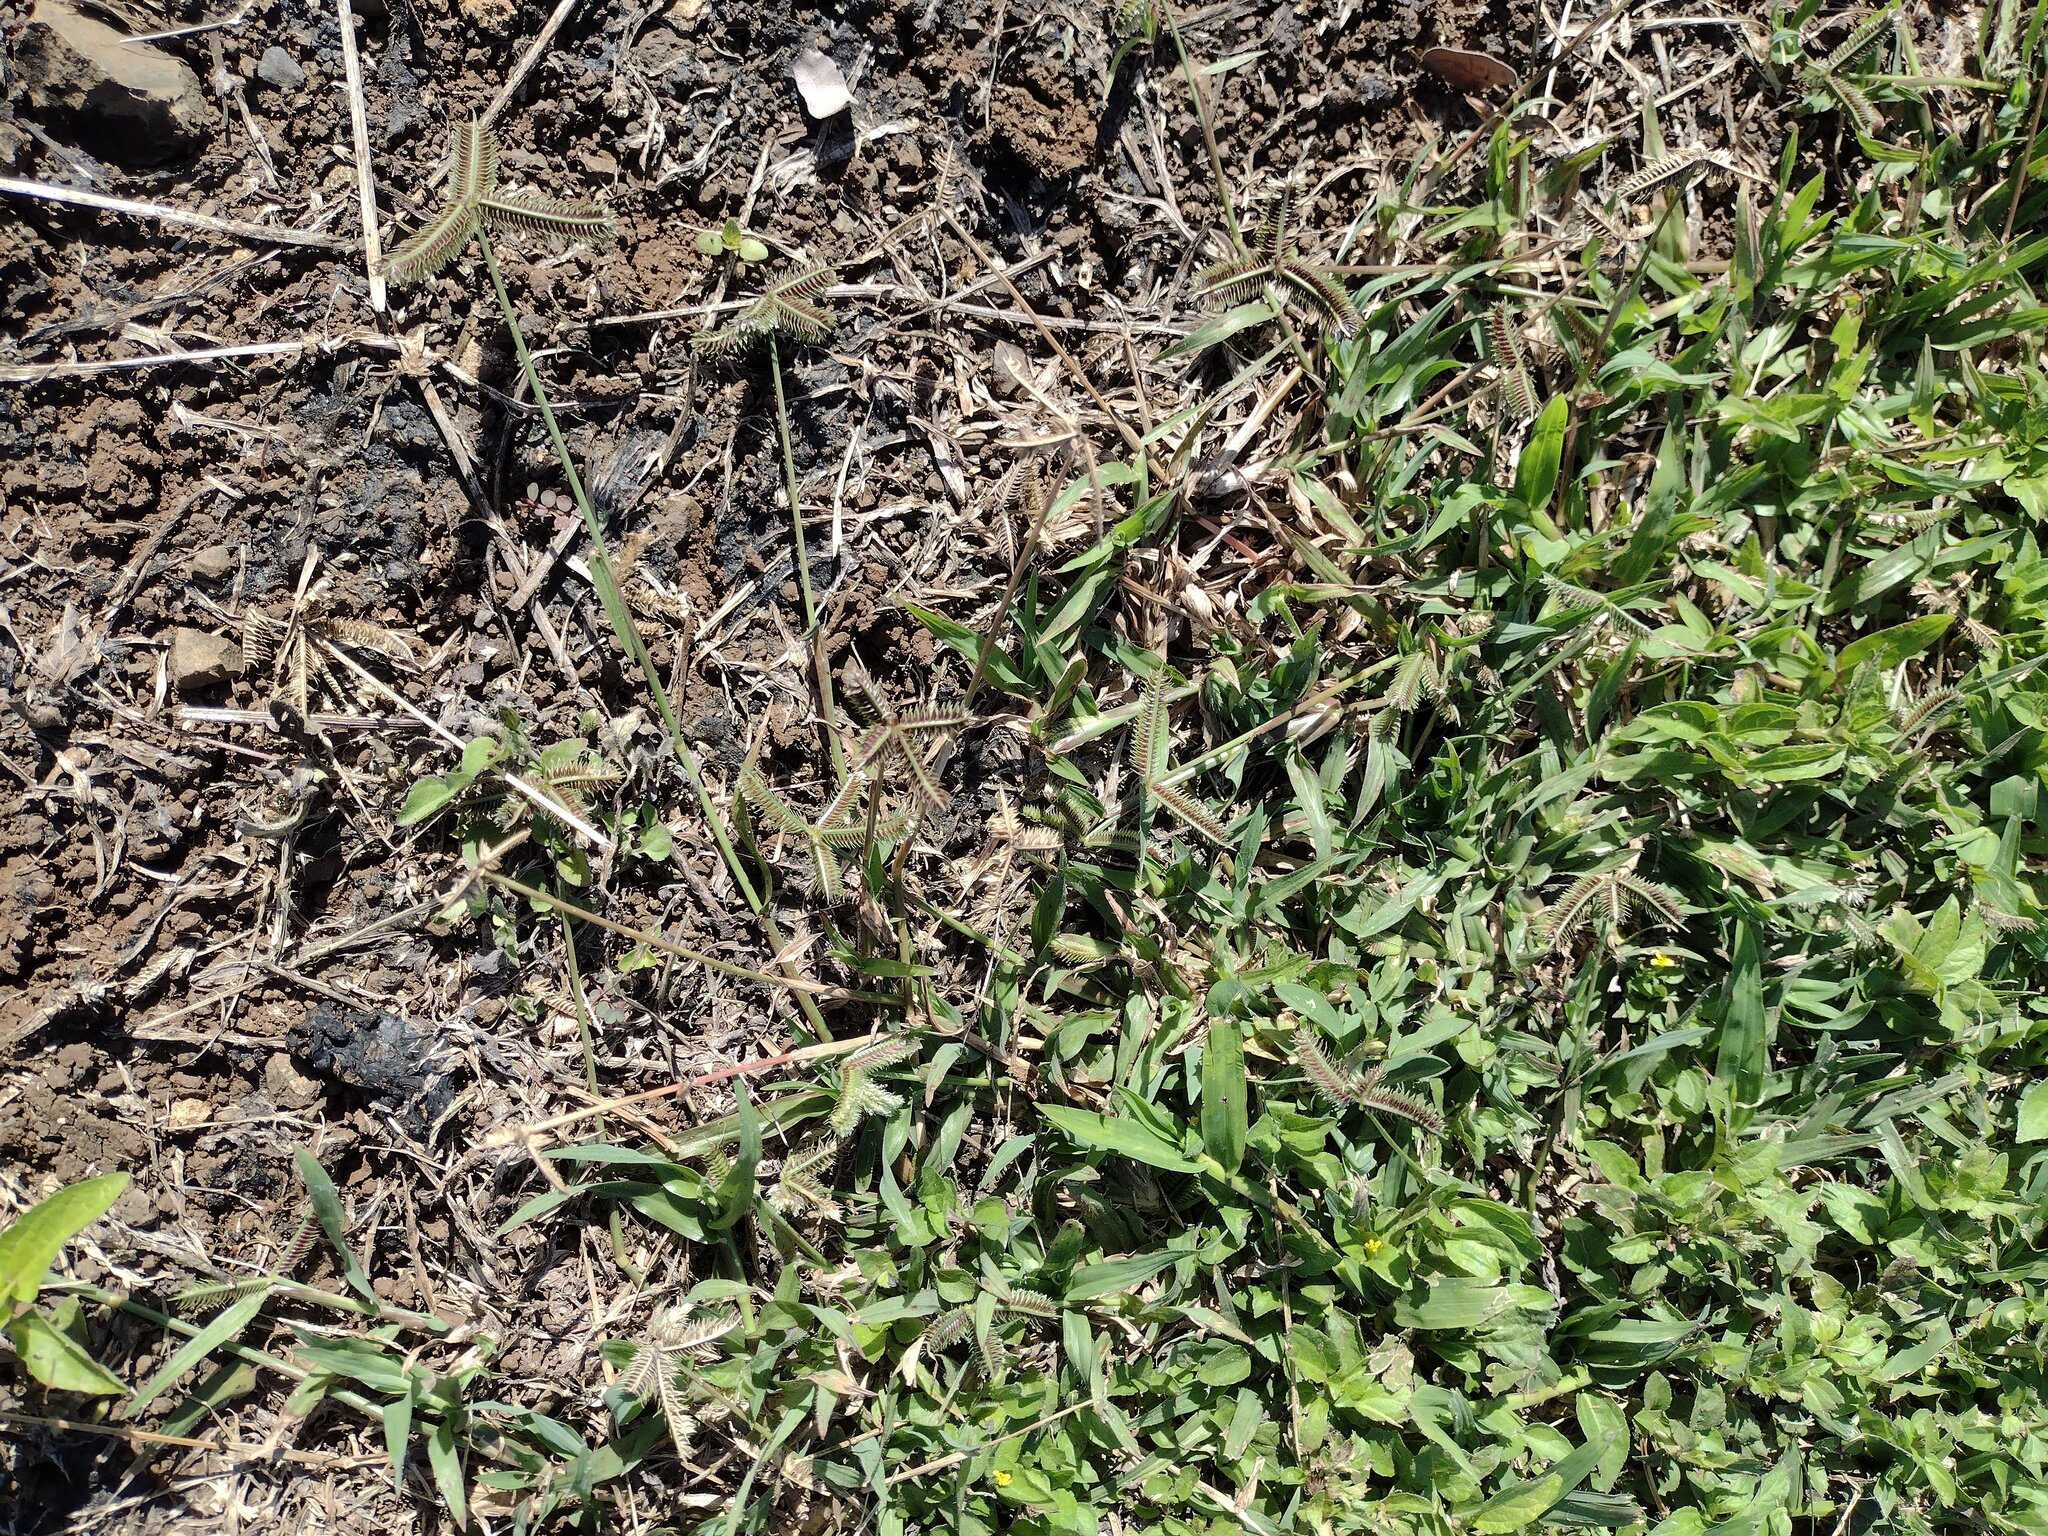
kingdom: Plantae
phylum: Tracheophyta
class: Liliopsida
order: Poales
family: Poaceae
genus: Dactyloctenium
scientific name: Dactyloctenium aegyptium
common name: Egyptian grass
